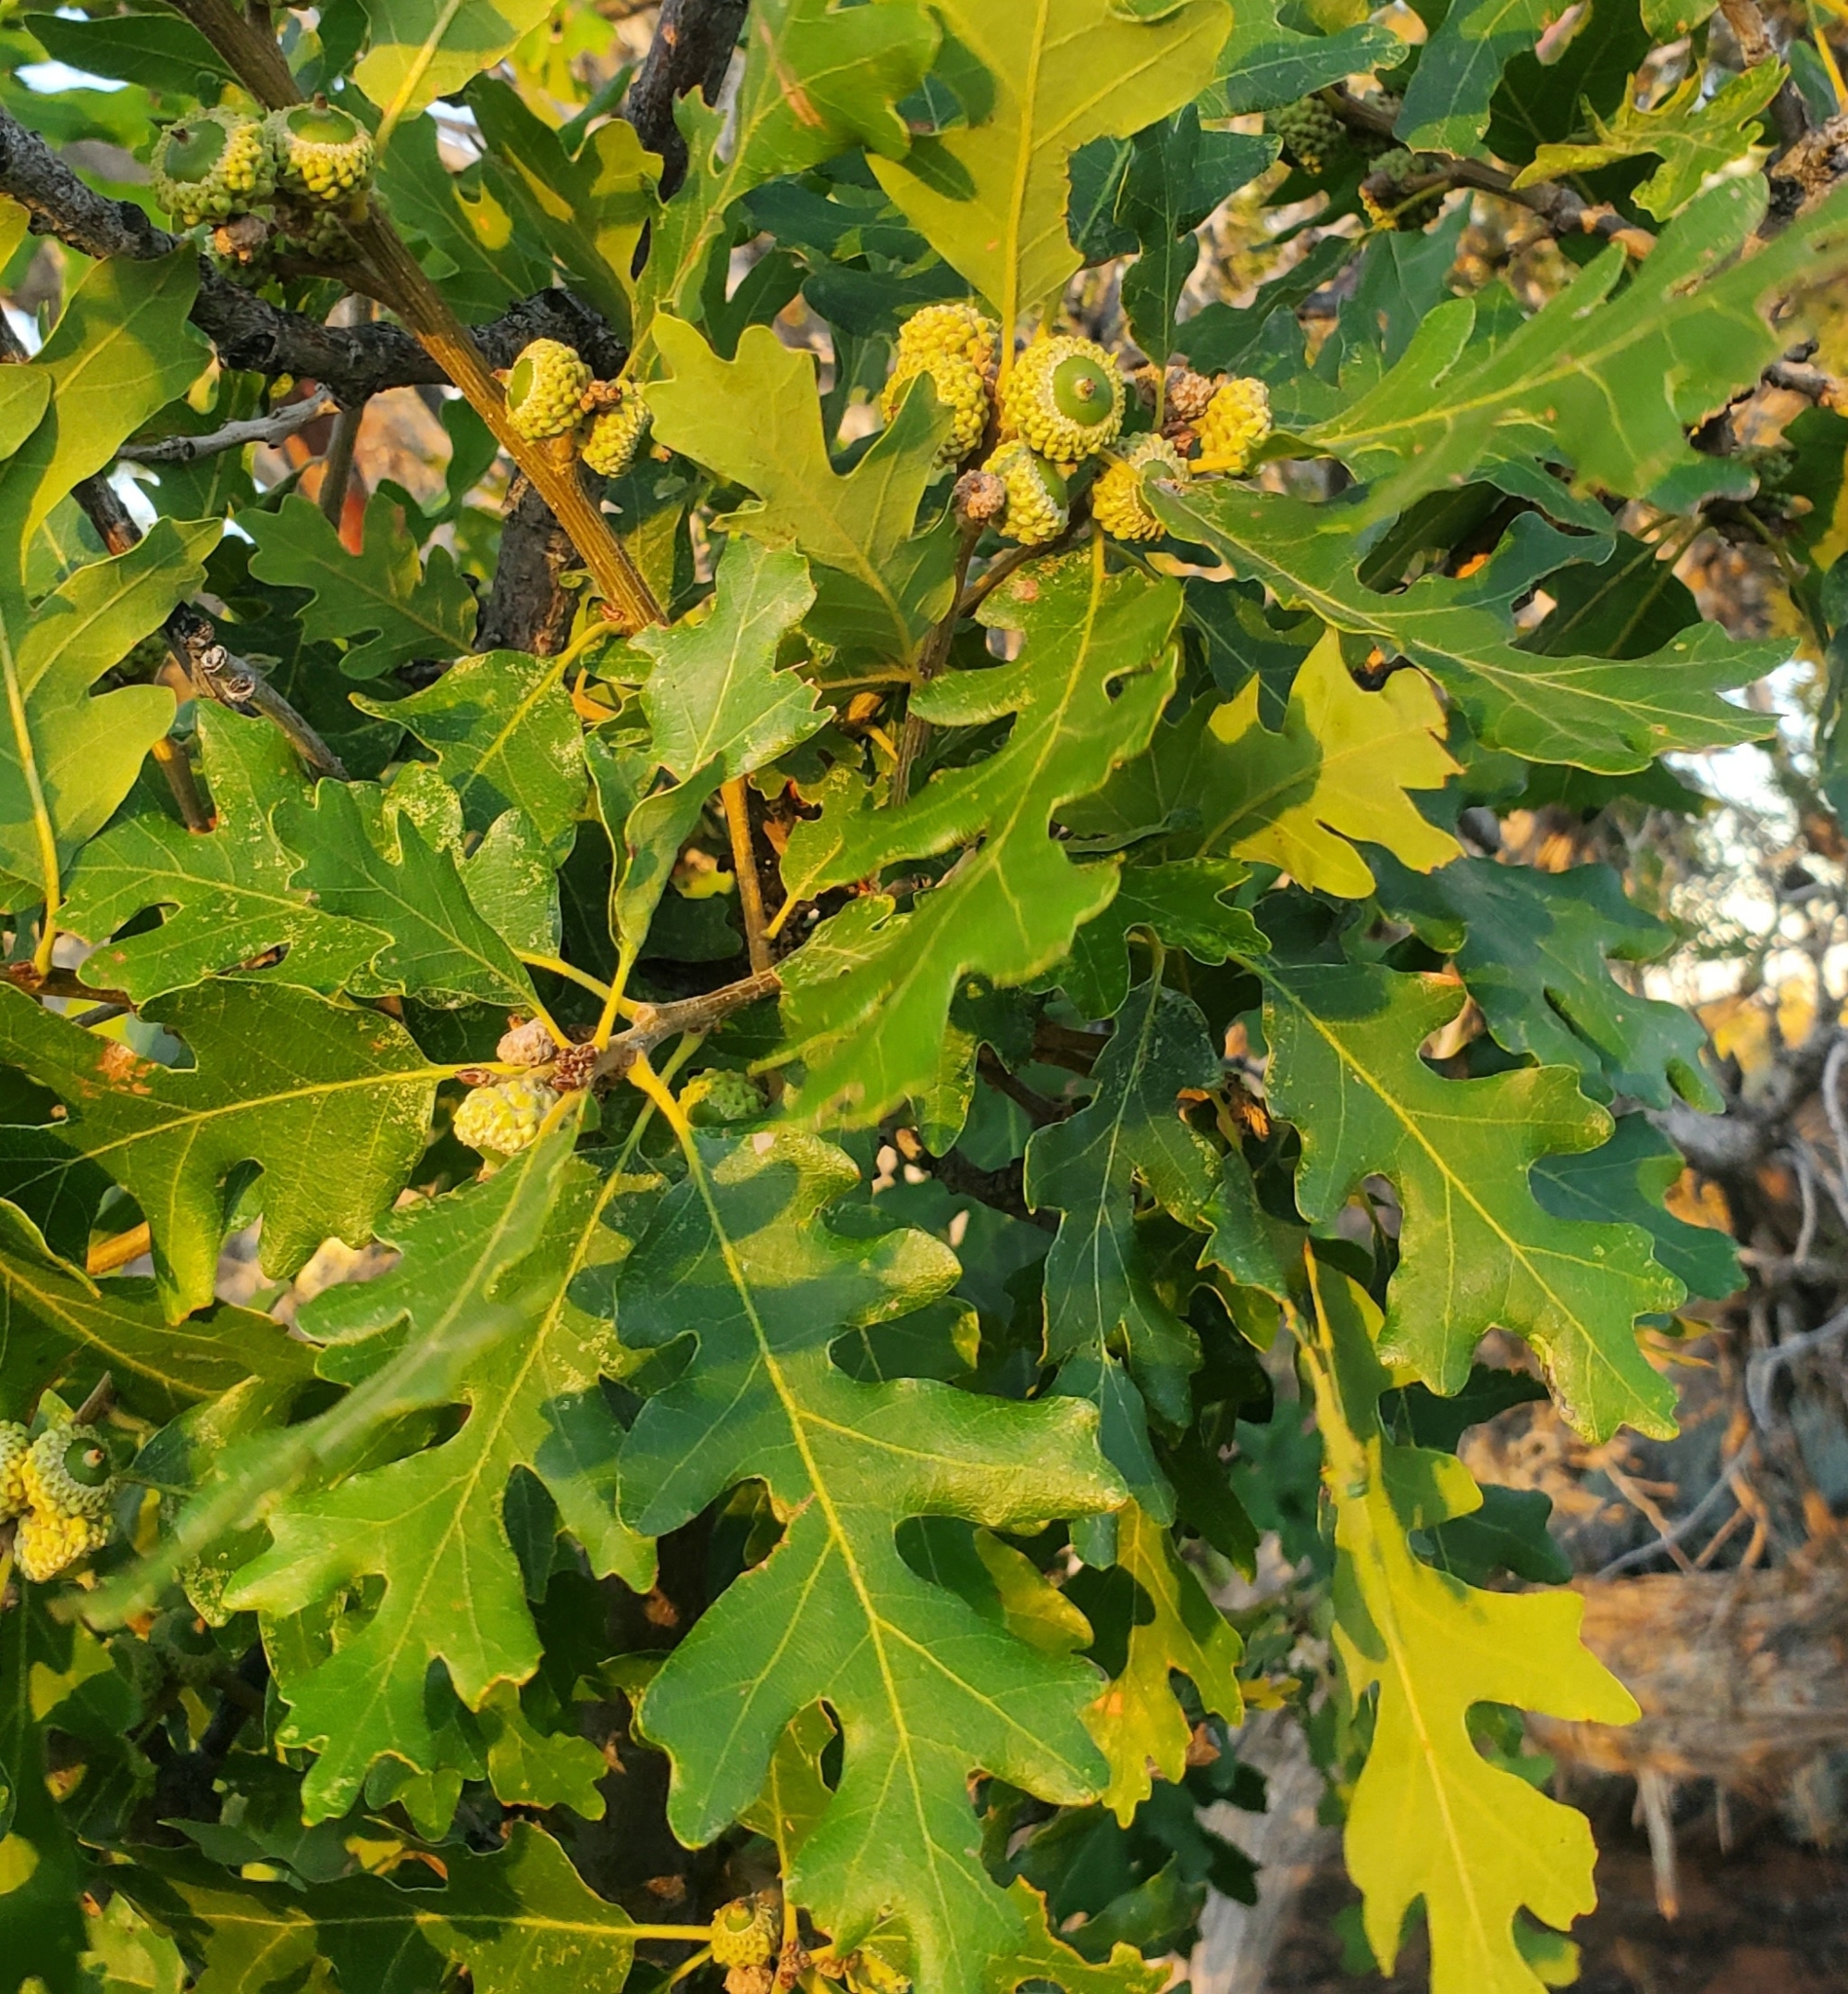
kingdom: Plantae
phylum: Tracheophyta
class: Magnoliopsida
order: Fagales
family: Fagaceae
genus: Quercus
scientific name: Quercus gambelii
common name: Gambel oak
